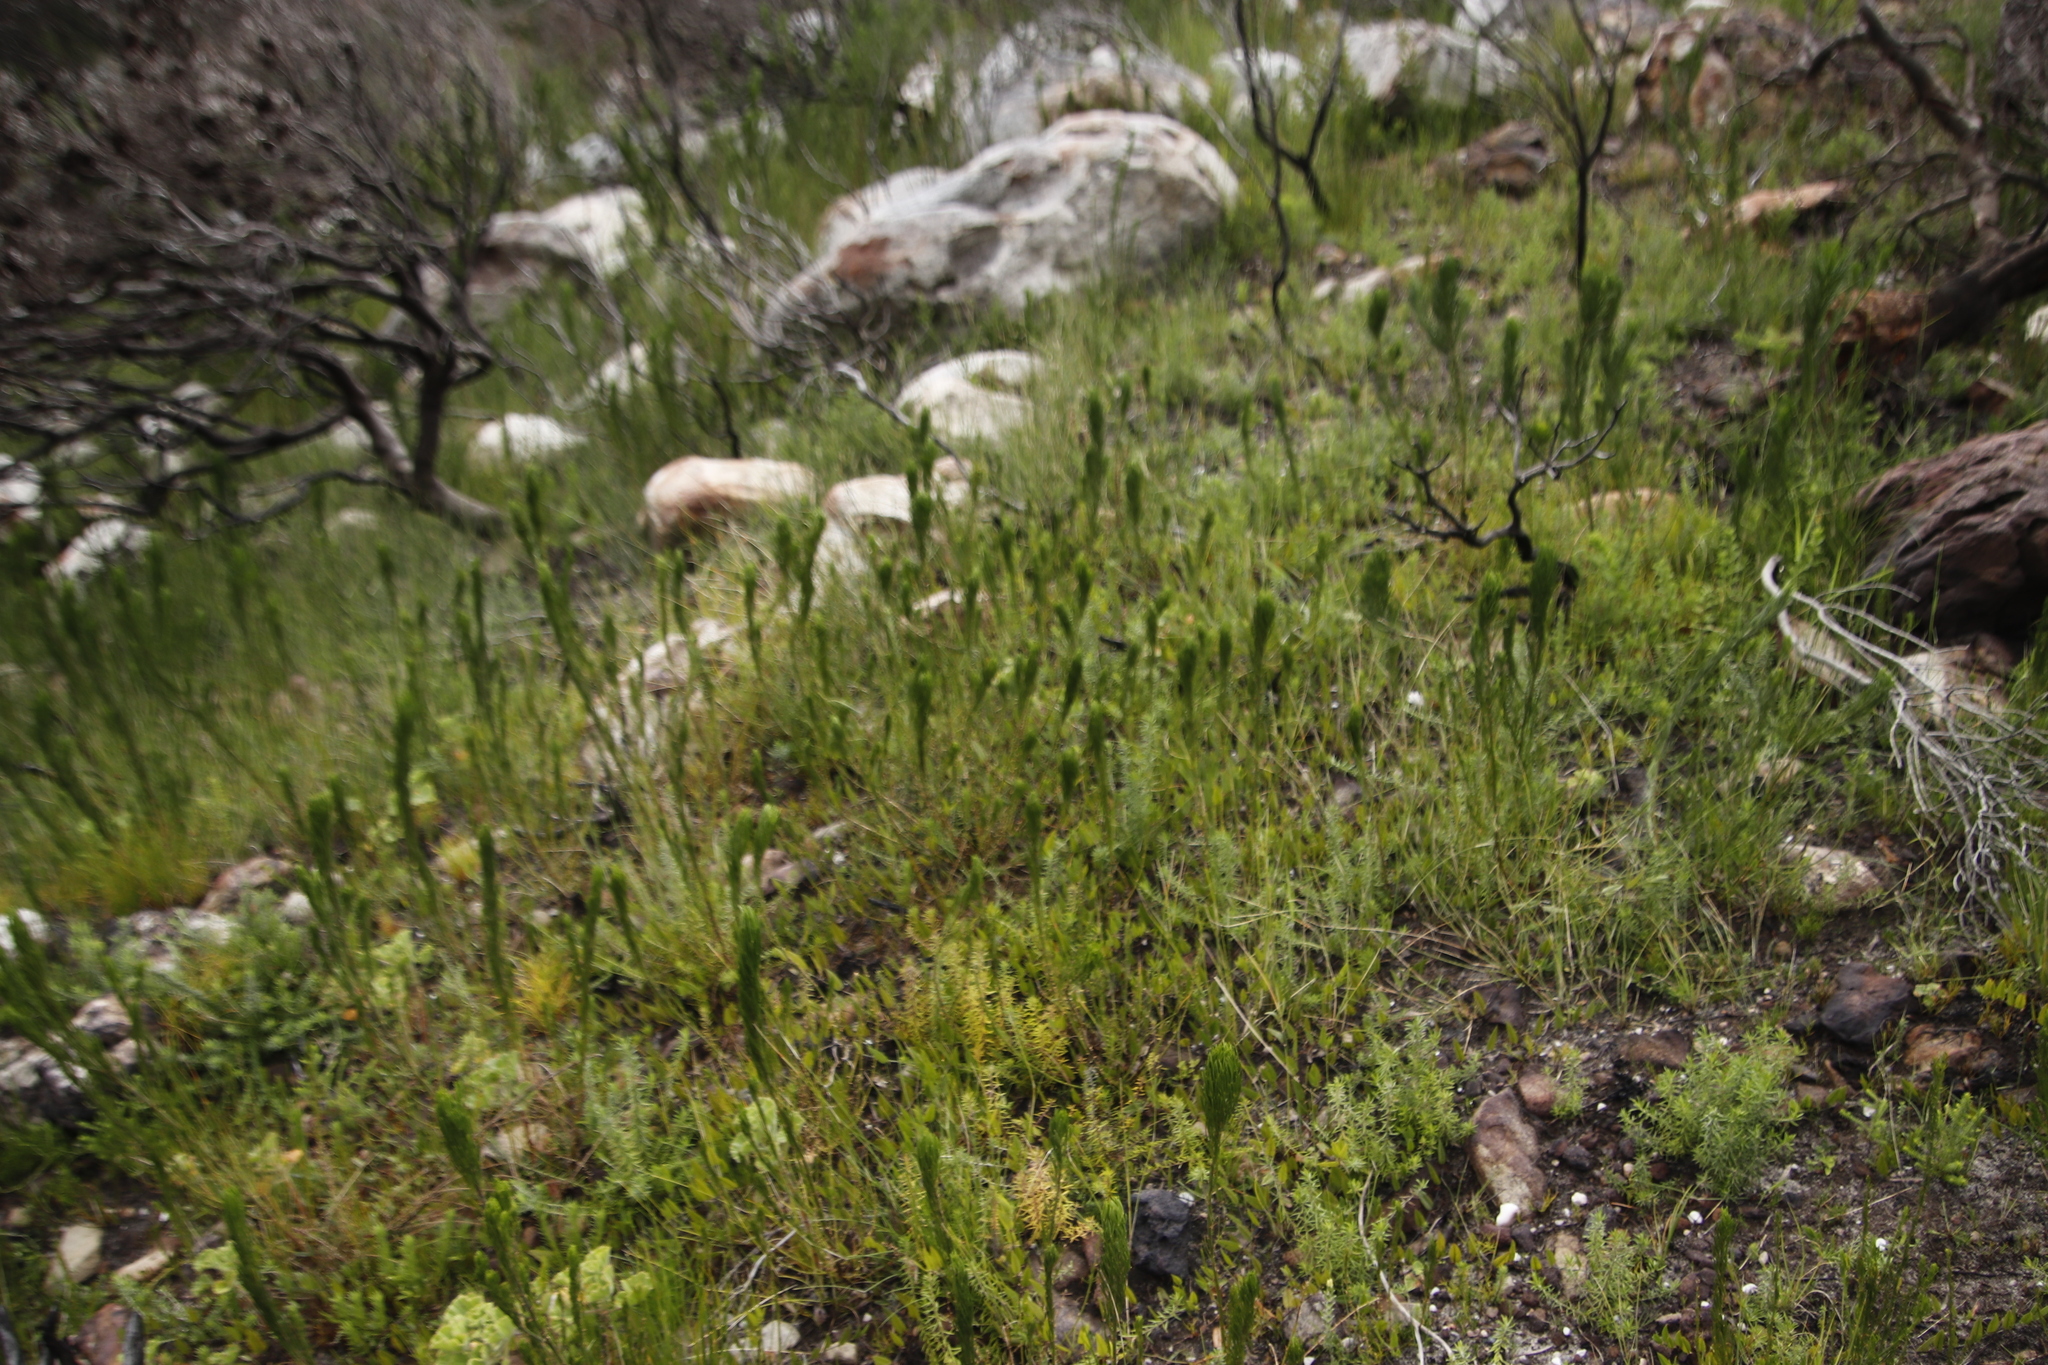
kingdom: Plantae
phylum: Tracheophyta
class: Magnoliopsida
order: Fabales
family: Fabaceae
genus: Psoralea
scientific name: Psoralea pinnata
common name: African scurfpea
